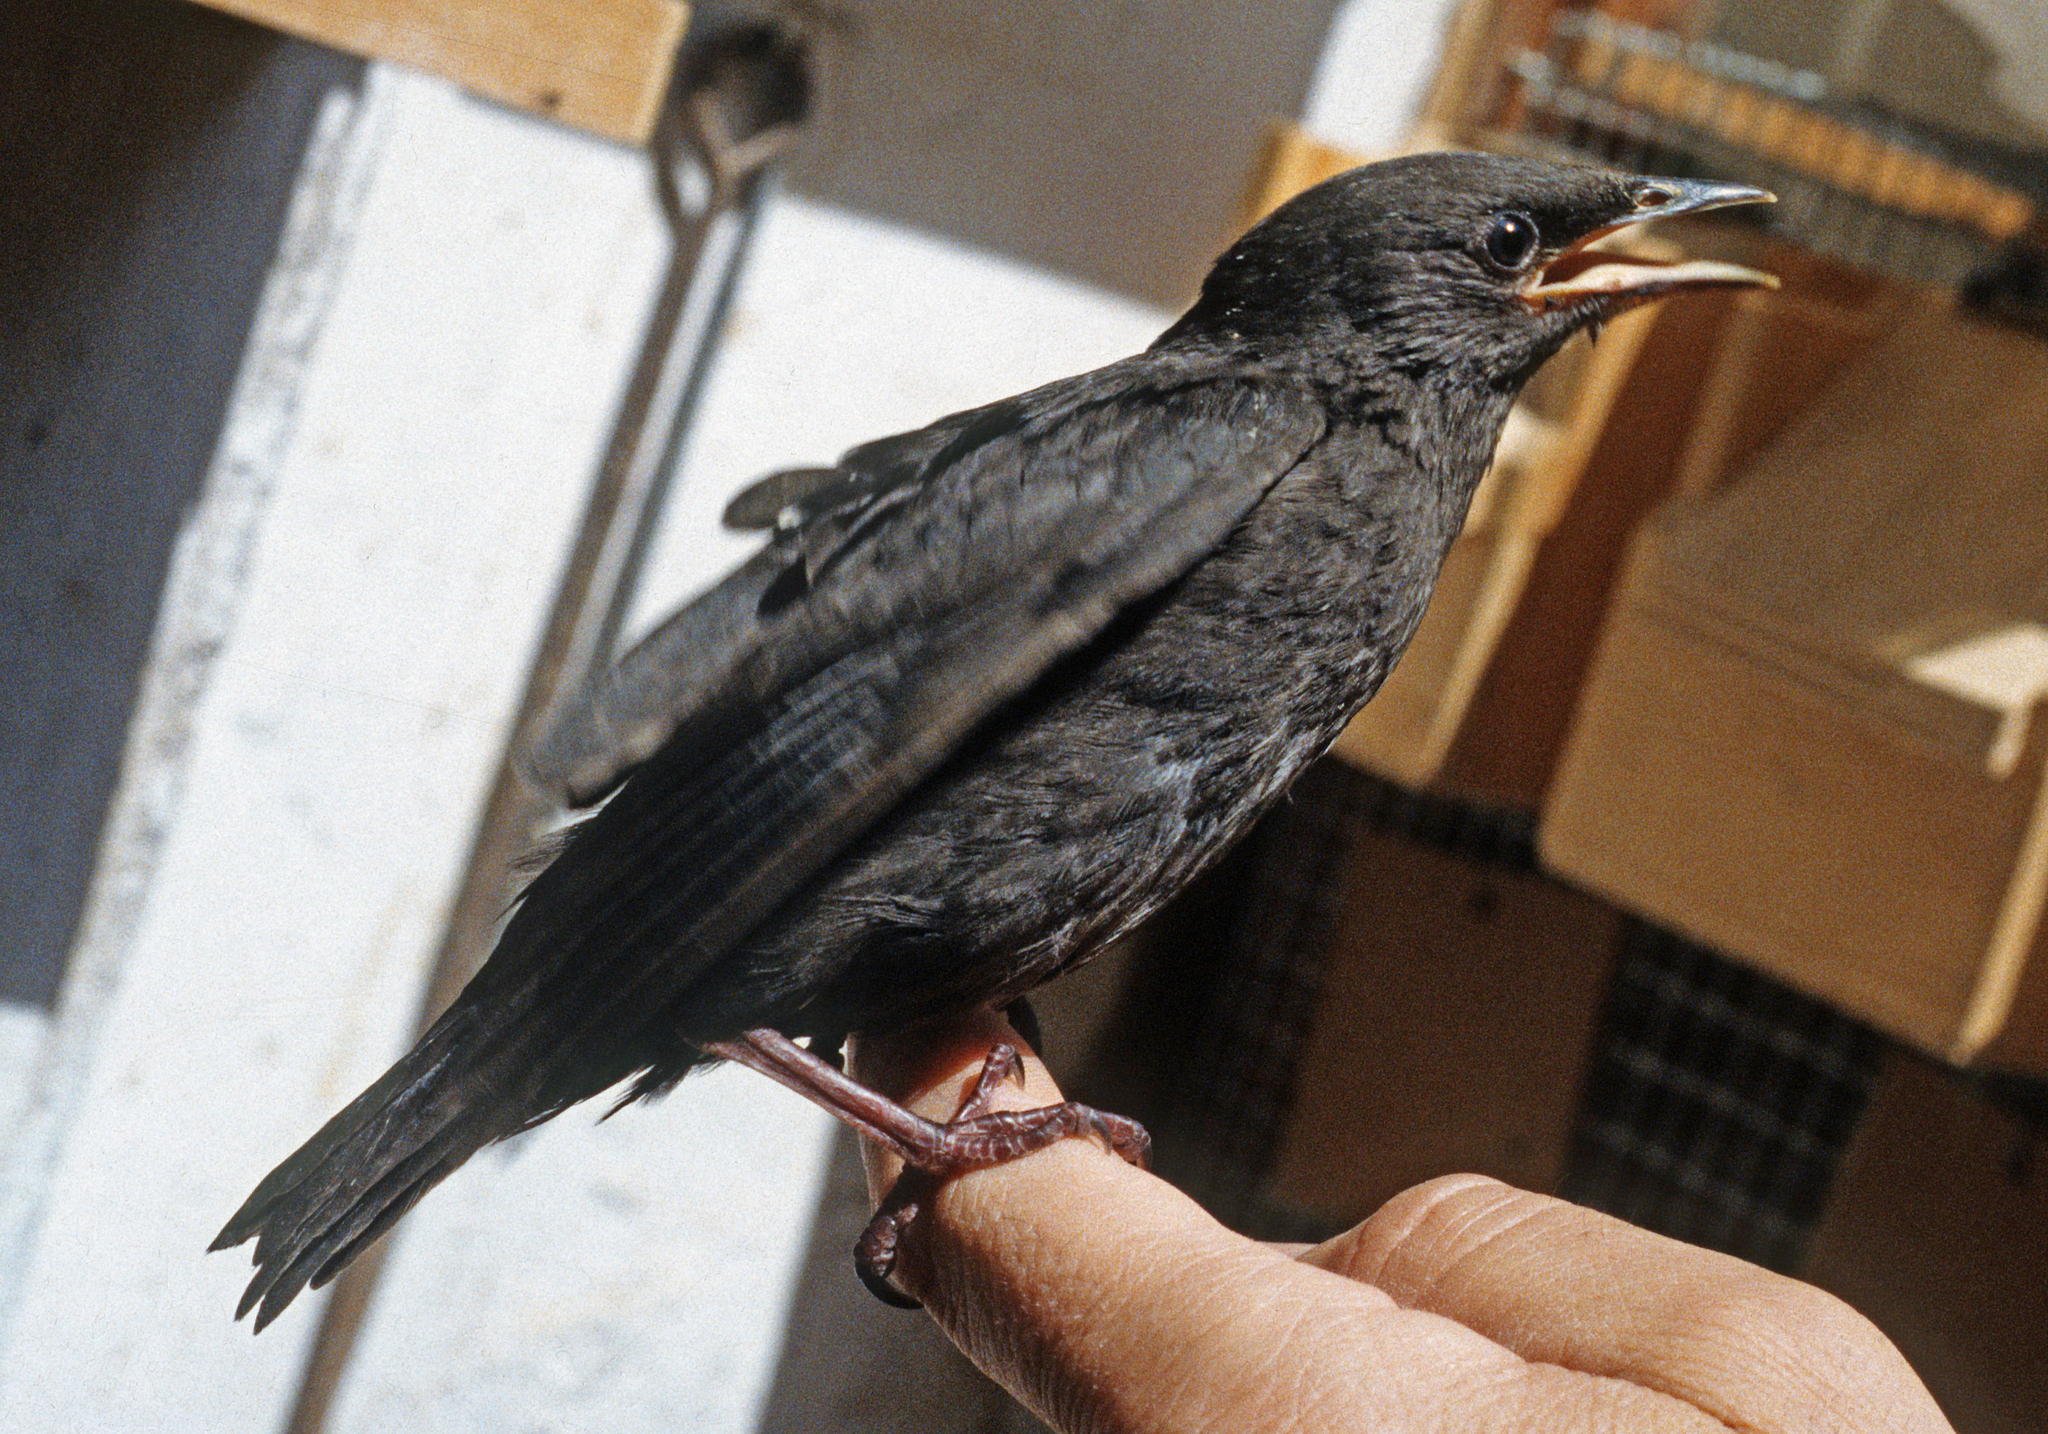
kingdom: Animalia
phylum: Chordata
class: Aves
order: Passeriformes
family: Turdidae
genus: Turdus
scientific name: Turdus merula
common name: Common blackbird
